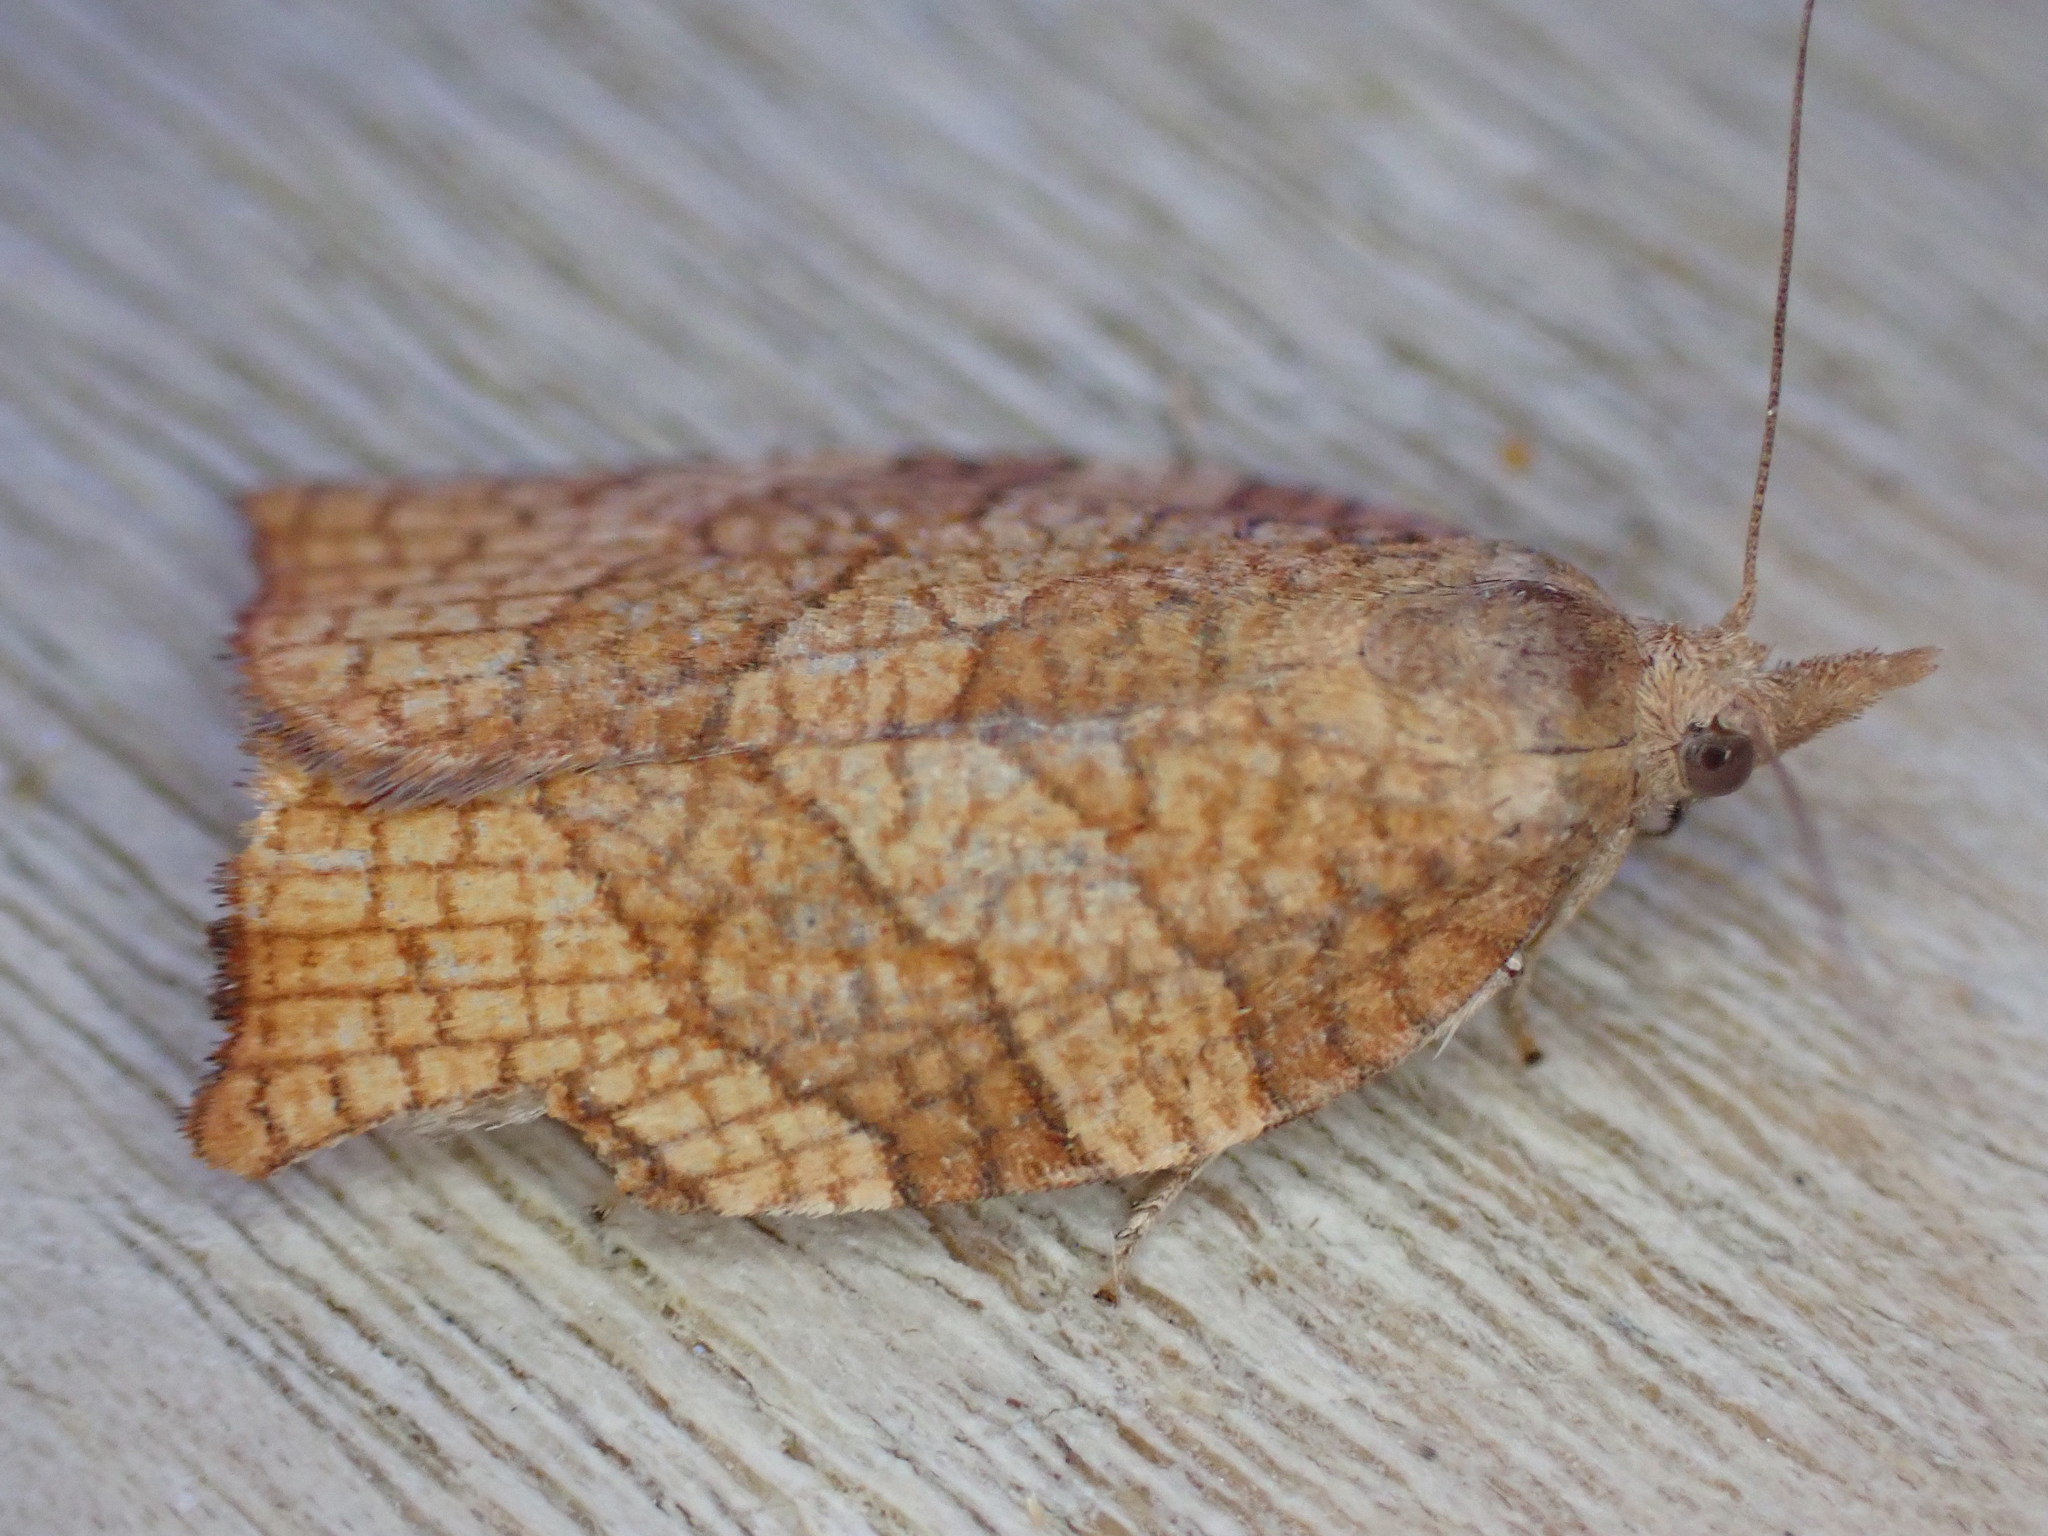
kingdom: Animalia
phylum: Arthropoda
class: Insecta
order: Lepidoptera
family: Tortricidae
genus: Pandemis
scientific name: Pandemis corylana
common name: Chequered fruit-tree tortrix
